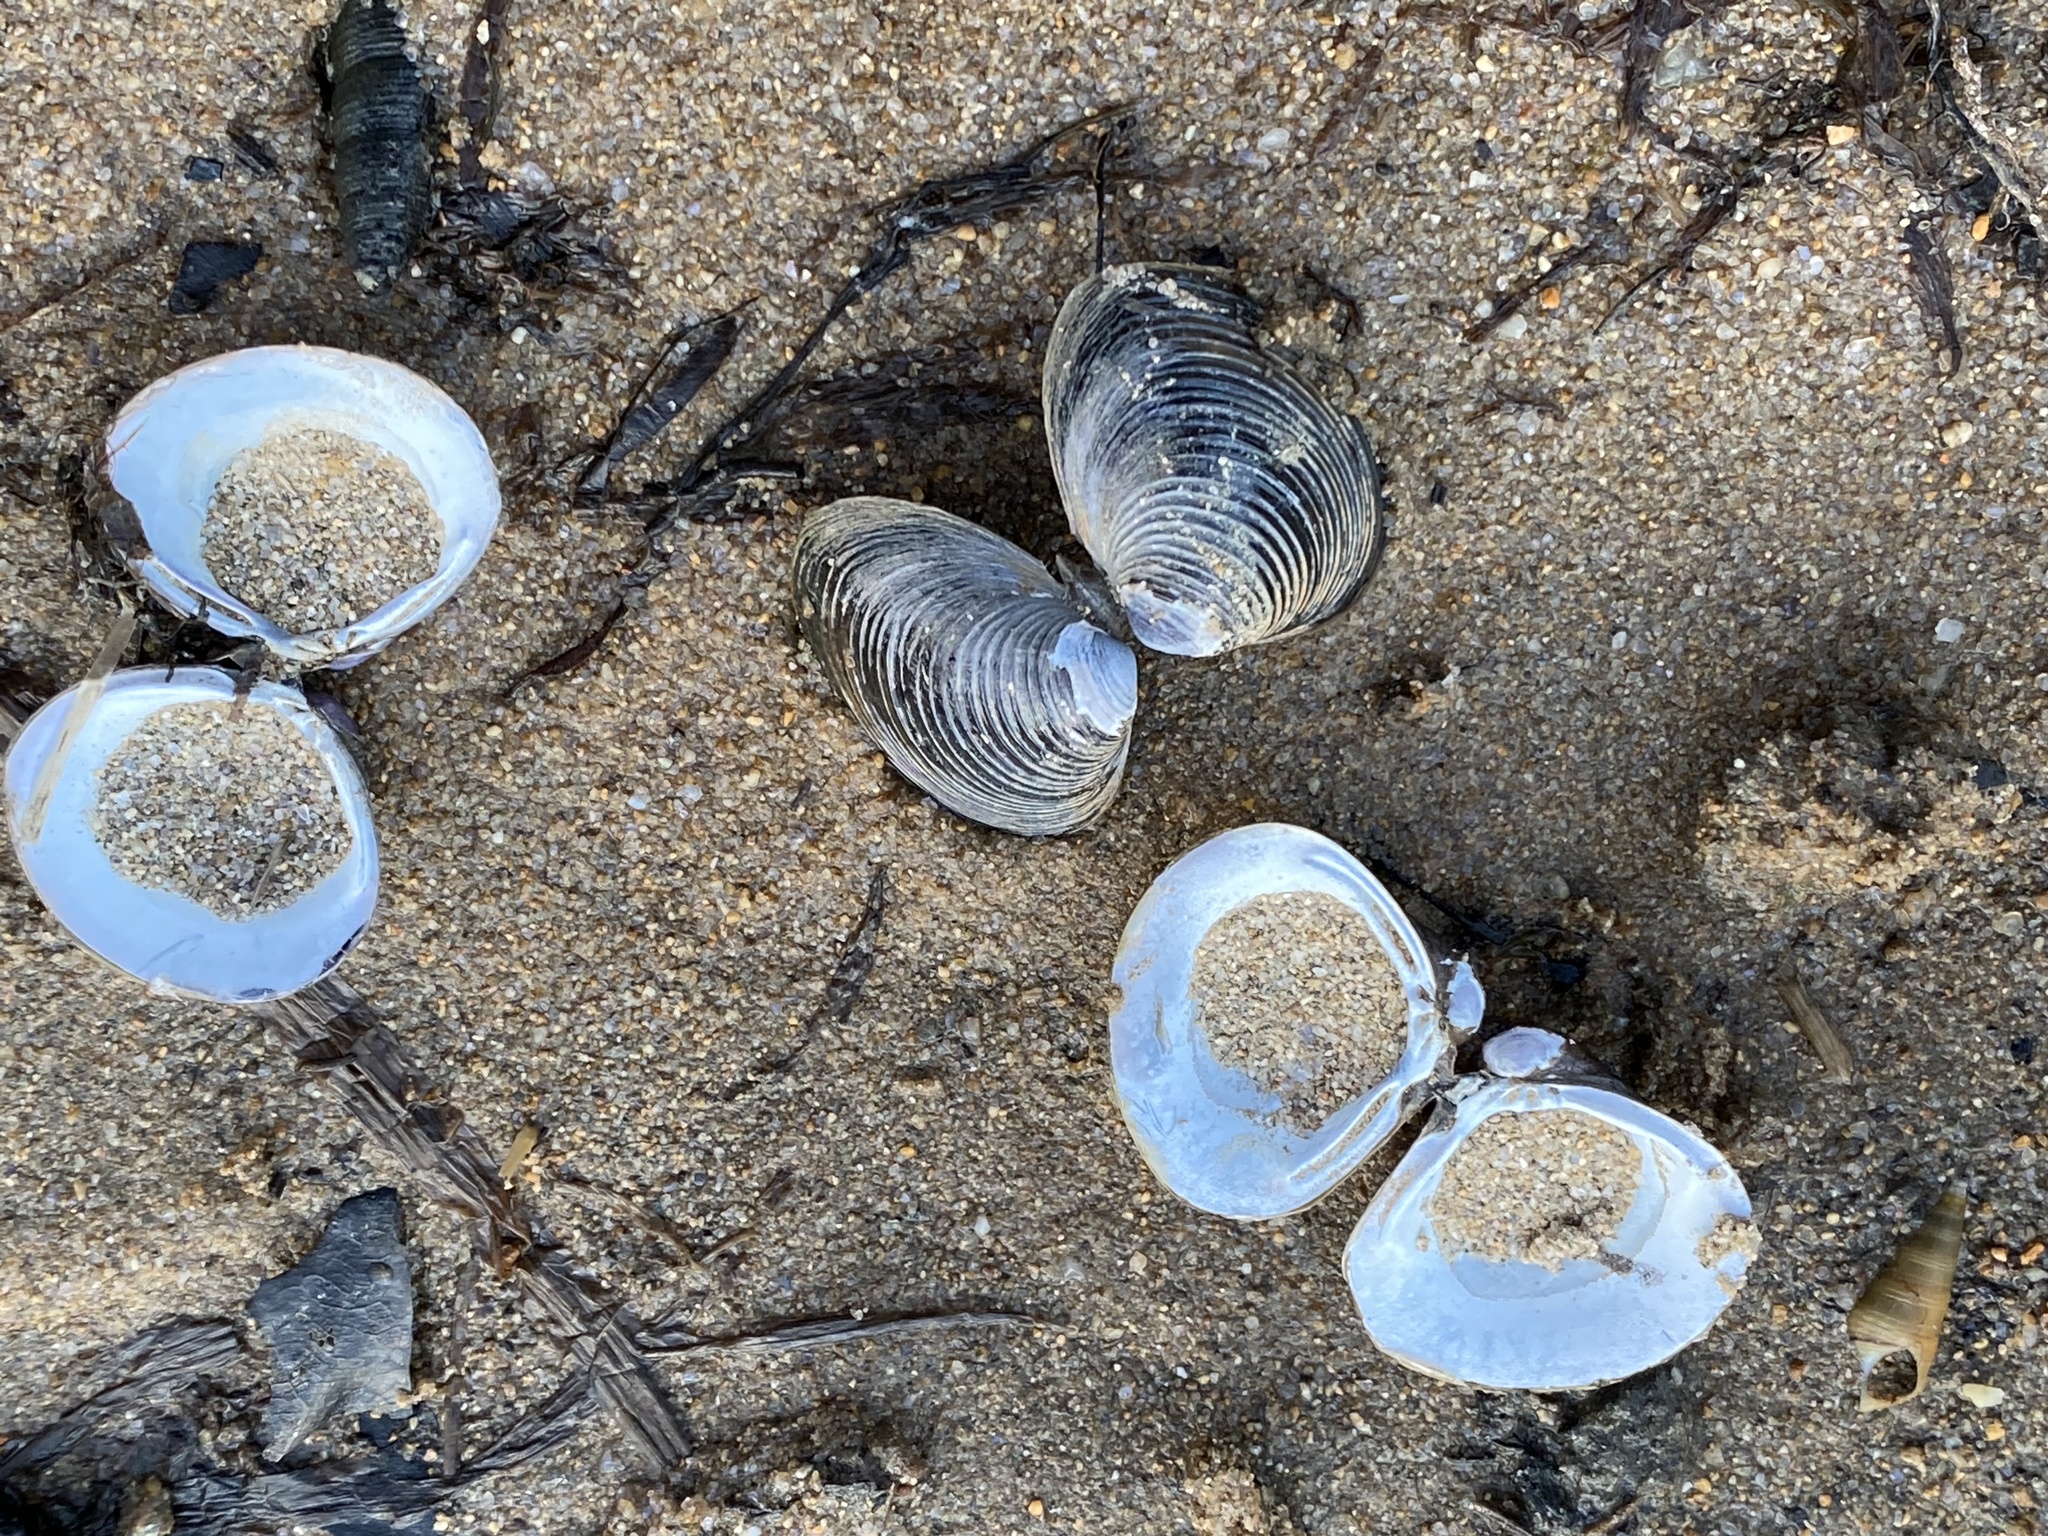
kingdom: Animalia
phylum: Mollusca
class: Bivalvia
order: Venerida
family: Cyrenidae
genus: Corbicula
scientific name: Corbicula fluminea
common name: Asian clam
